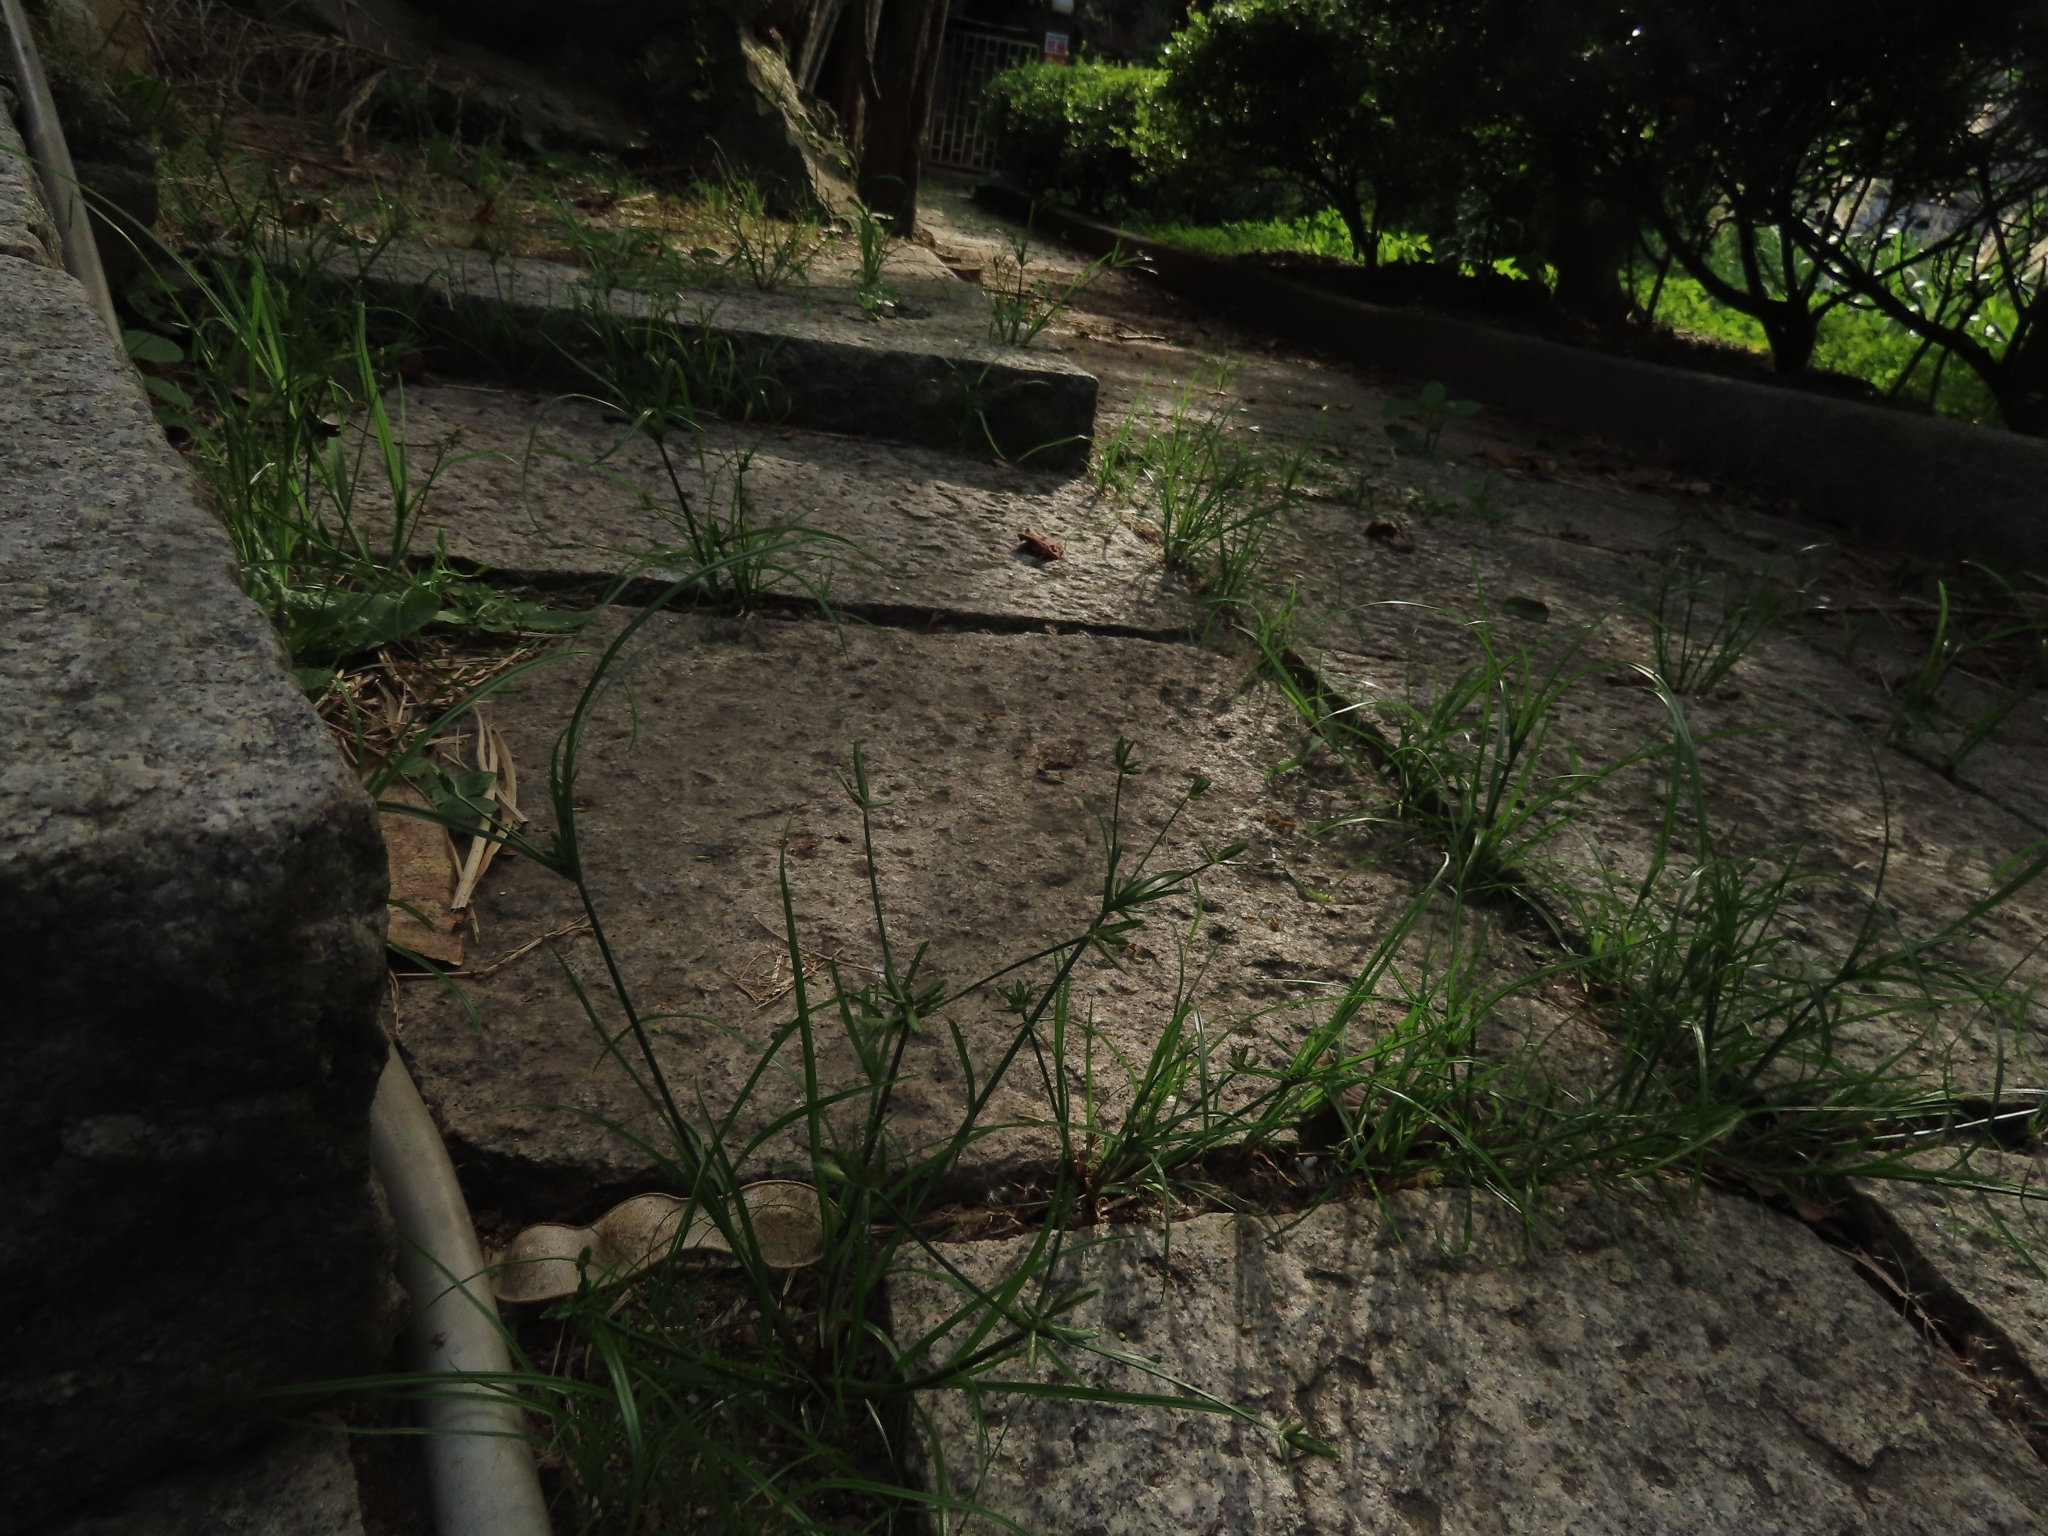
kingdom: Plantae
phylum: Tracheophyta
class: Liliopsida
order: Poales
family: Cyperaceae
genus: Cyperus
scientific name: Cyperus compressus
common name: Poorland flatsedge
